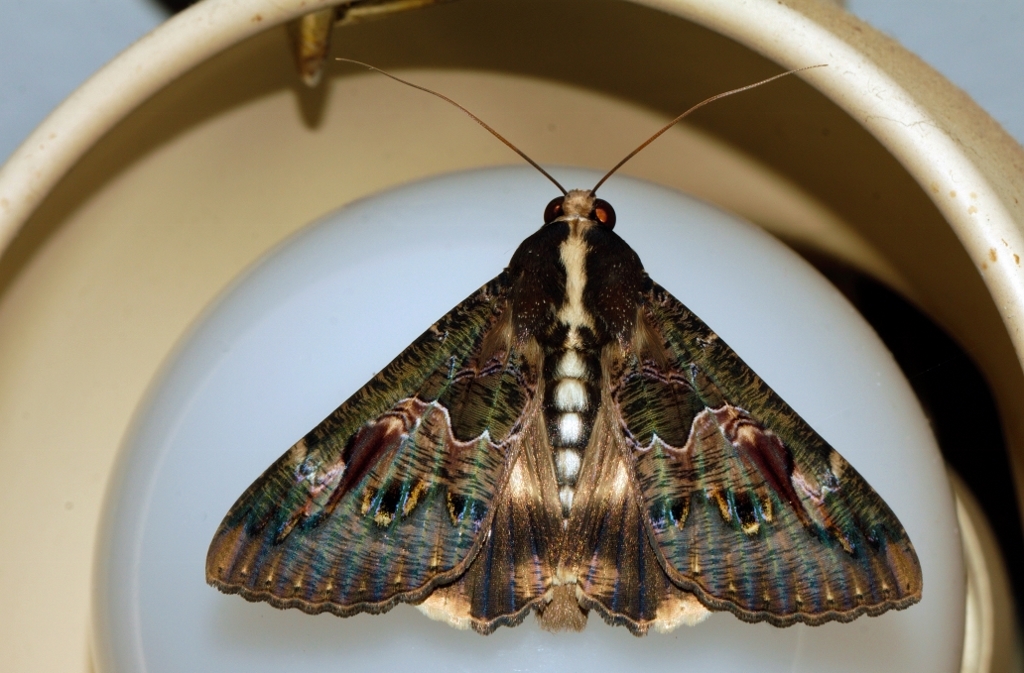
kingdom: Animalia
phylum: Arthropoda
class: Insecta
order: Lepidoptera
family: Erebidae
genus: Sphingomorpha
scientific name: Sphingomorpha chlorea
